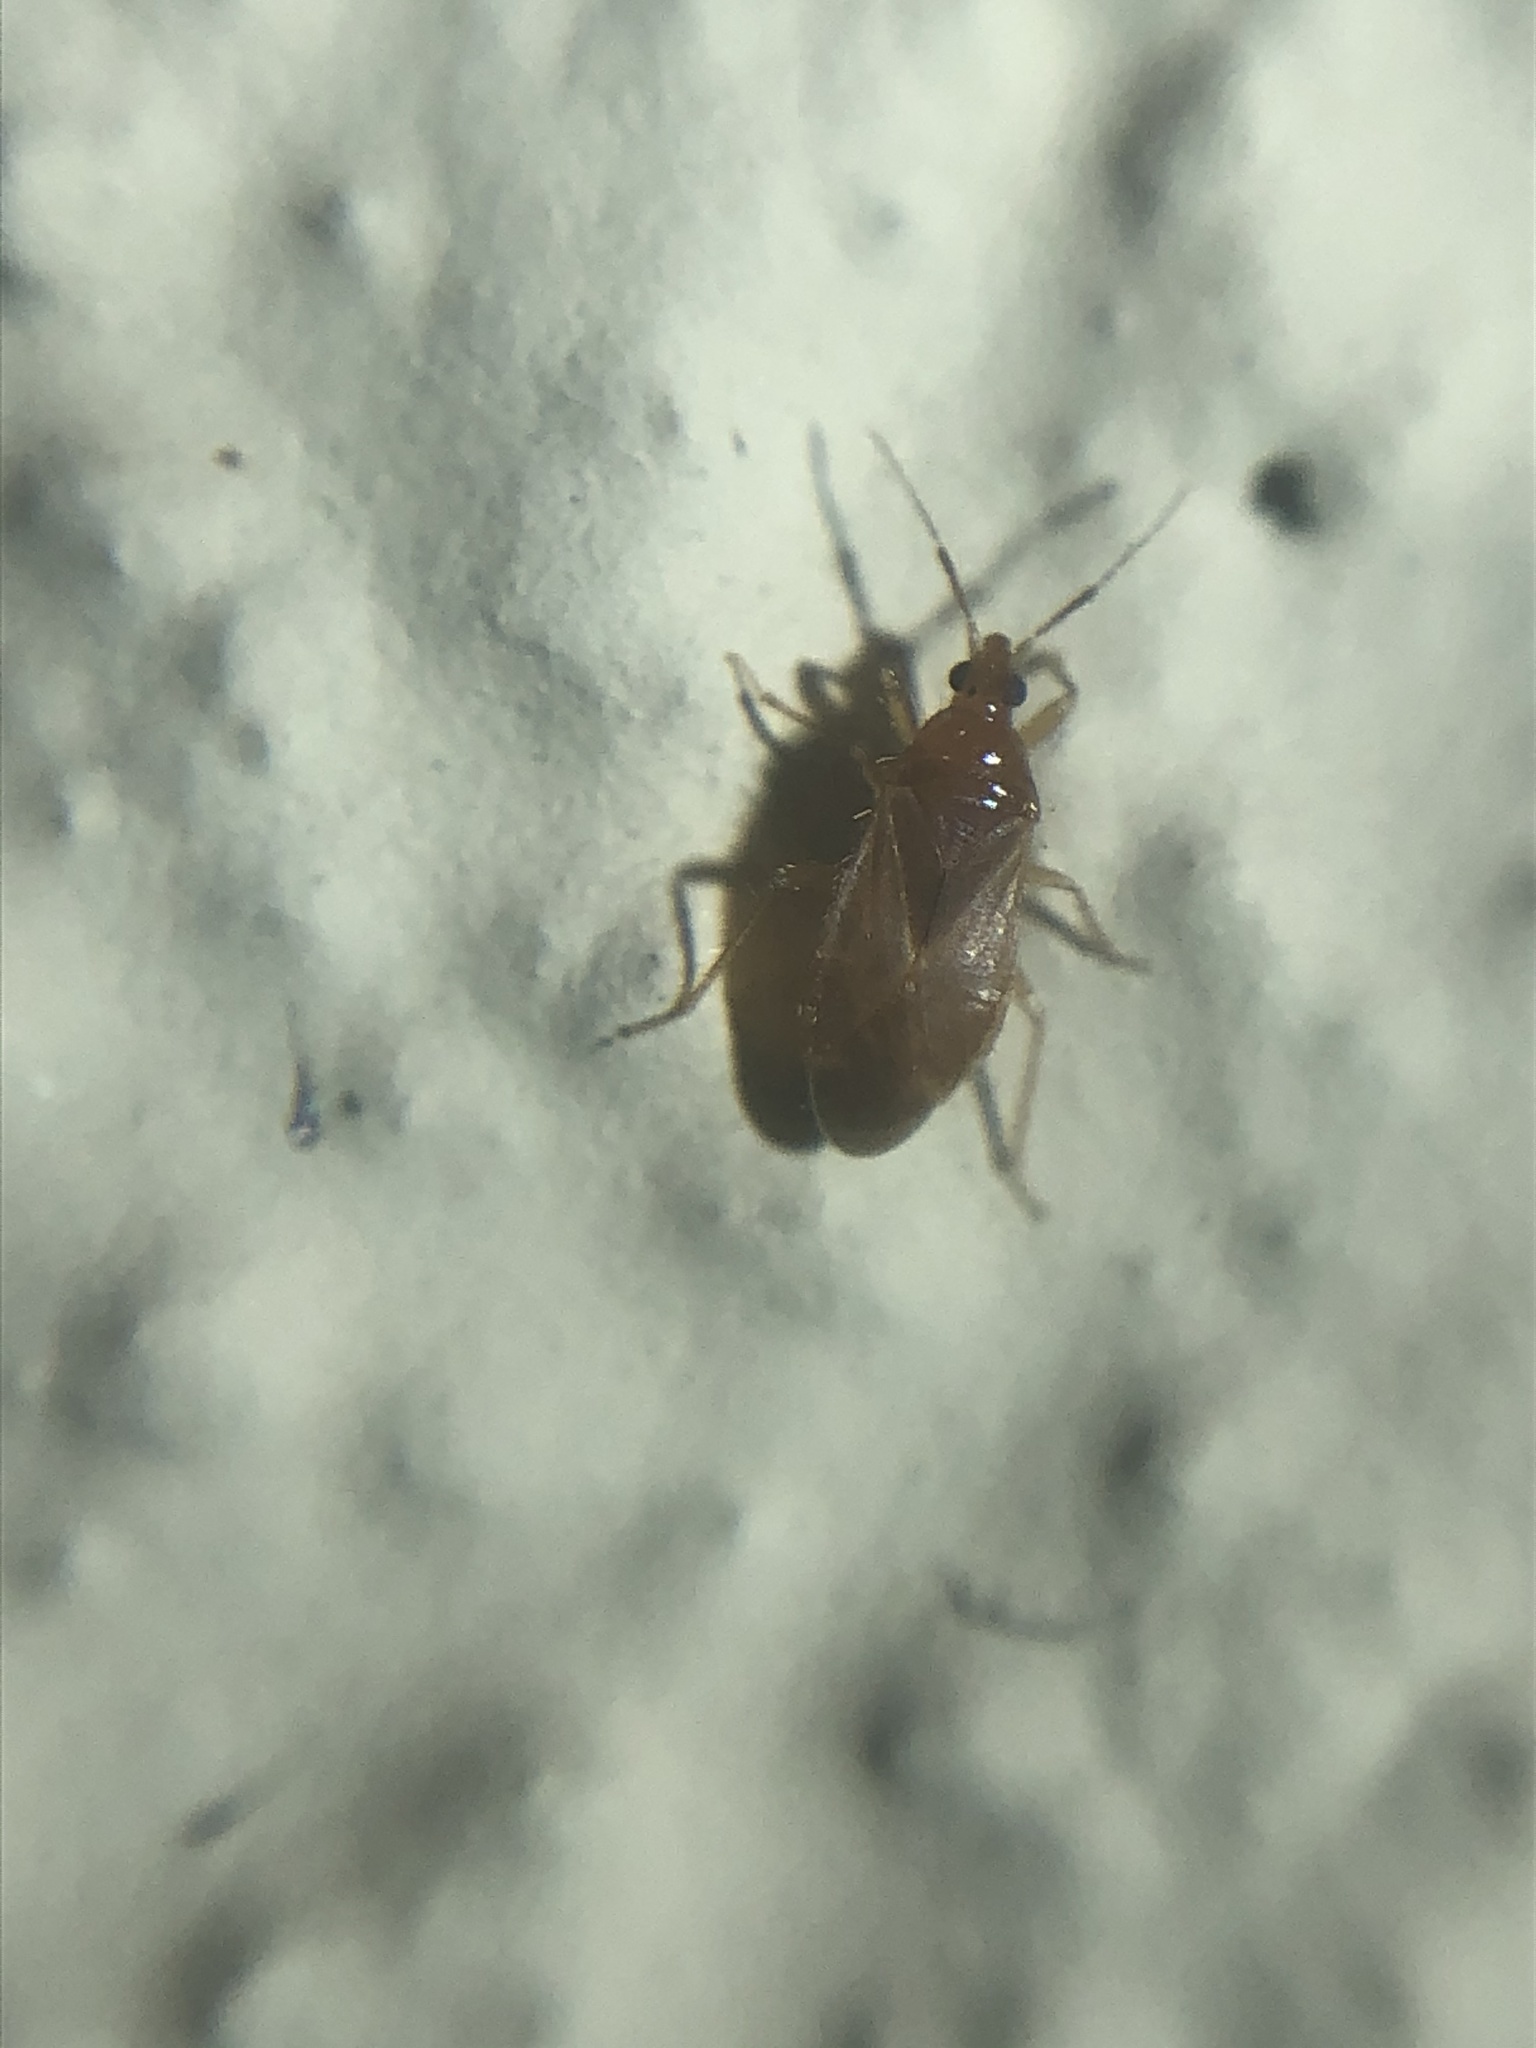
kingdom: Animalia
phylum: Arthropoda
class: Insecta
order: Hemiptera
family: Anthocoridae
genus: Lasiochilus
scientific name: Lasiochilus pallidulus
